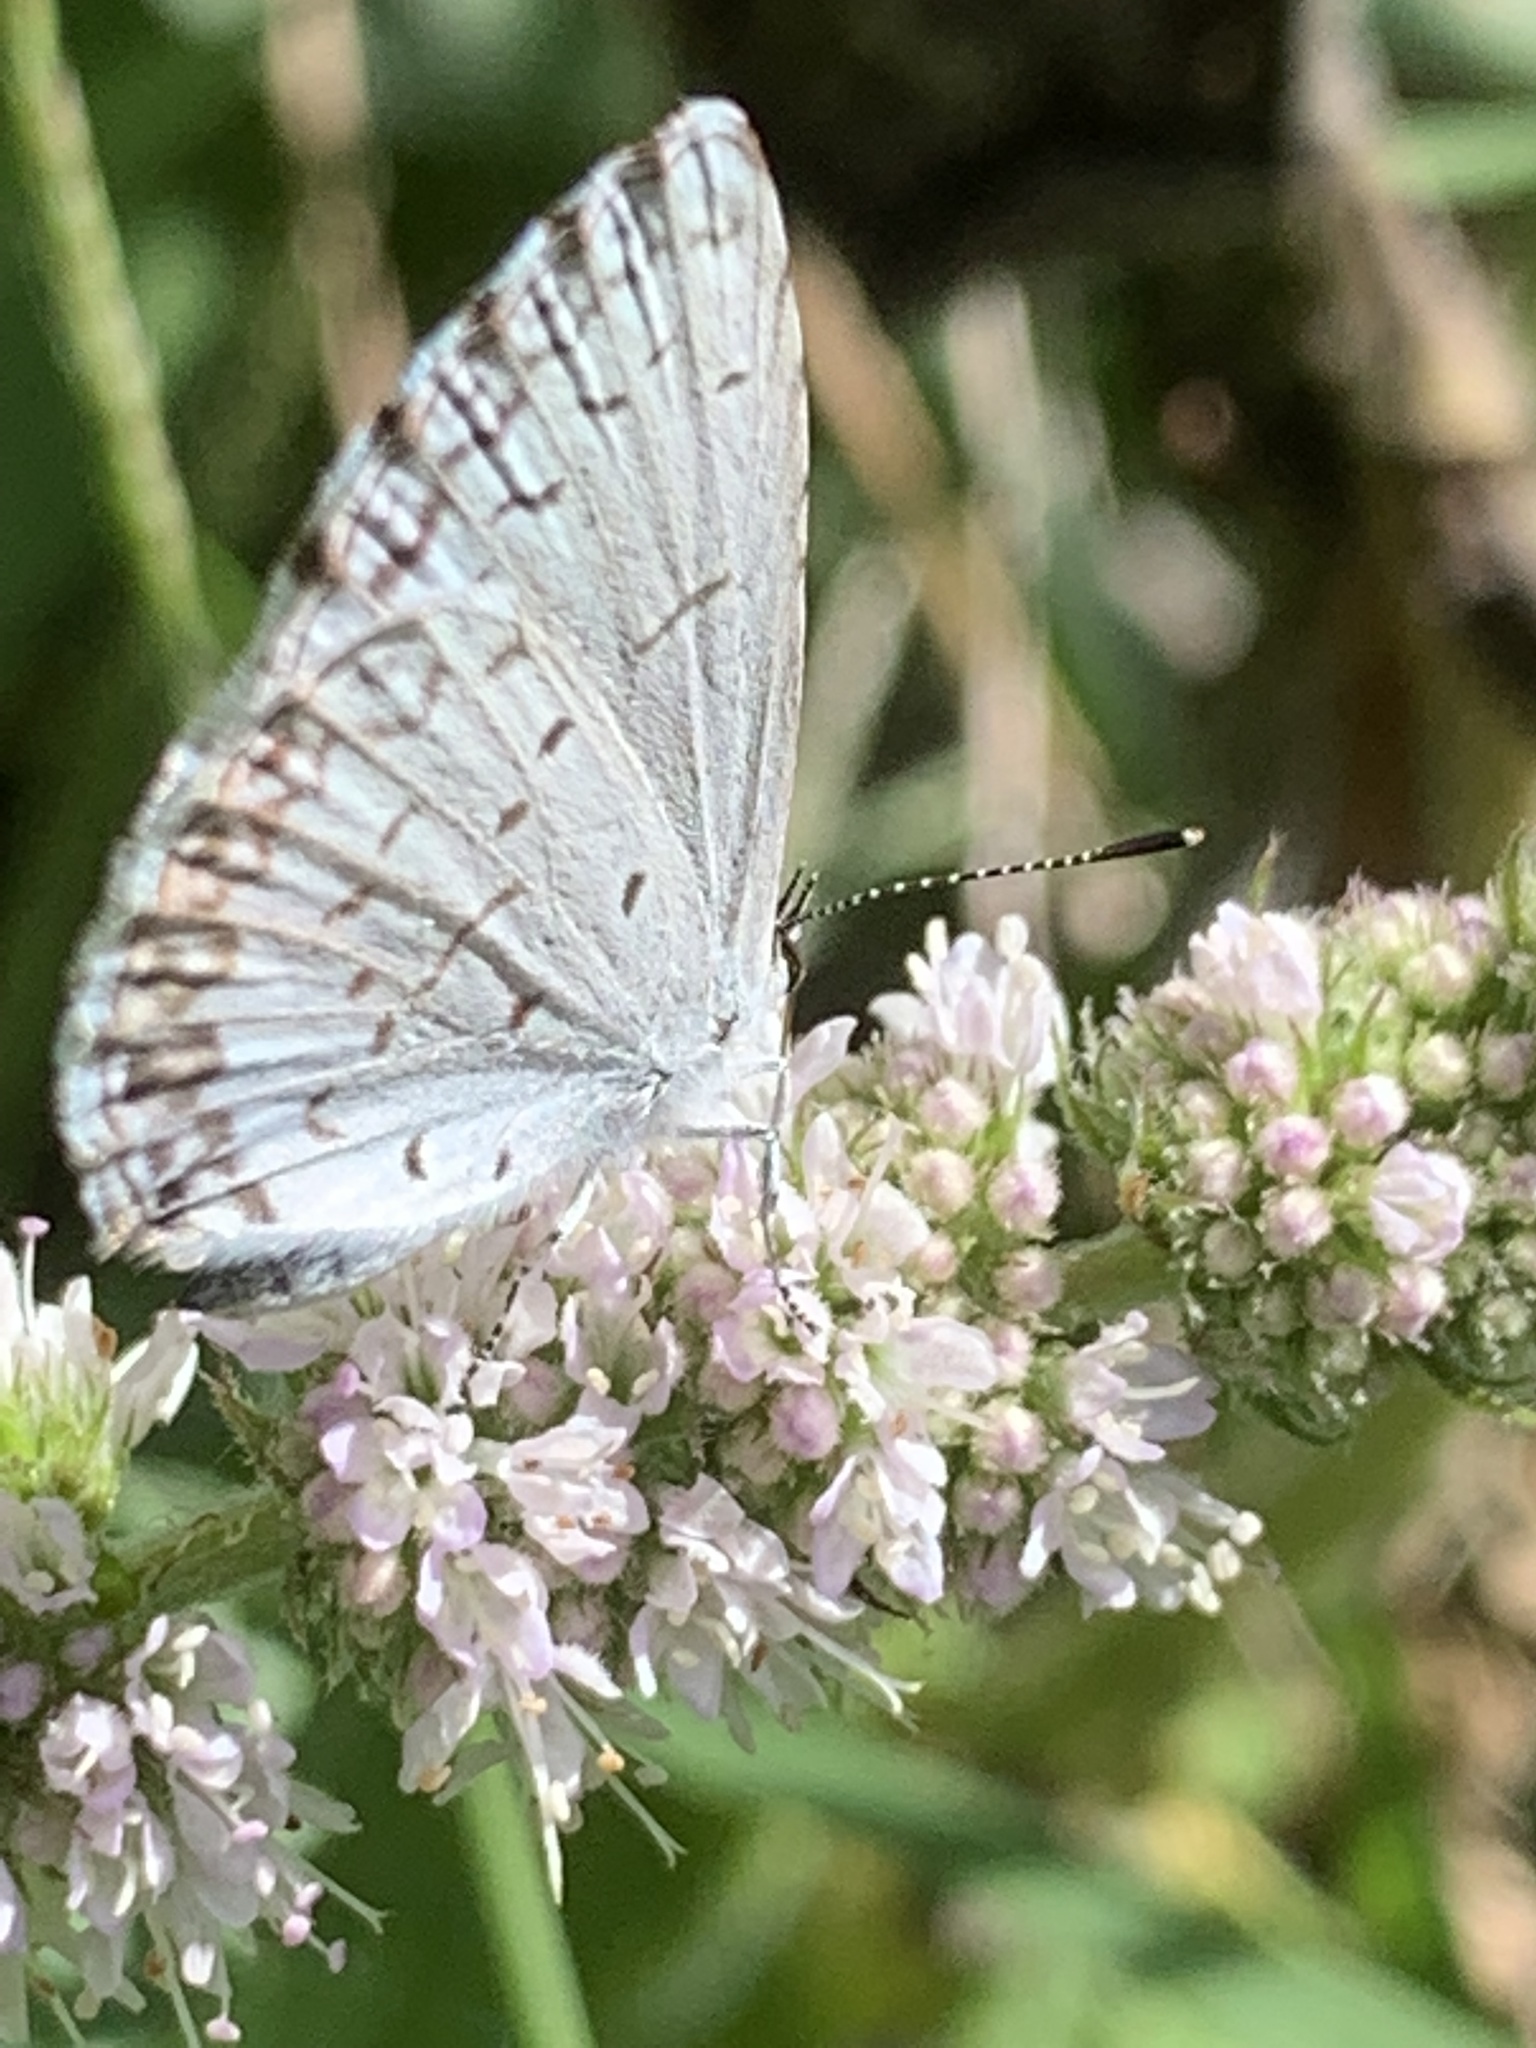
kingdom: Animalia
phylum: Arthropoda
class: Insecta
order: Lepidoptera
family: Lycaenidae
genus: Cyaniris
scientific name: Cyaniris neglecta
